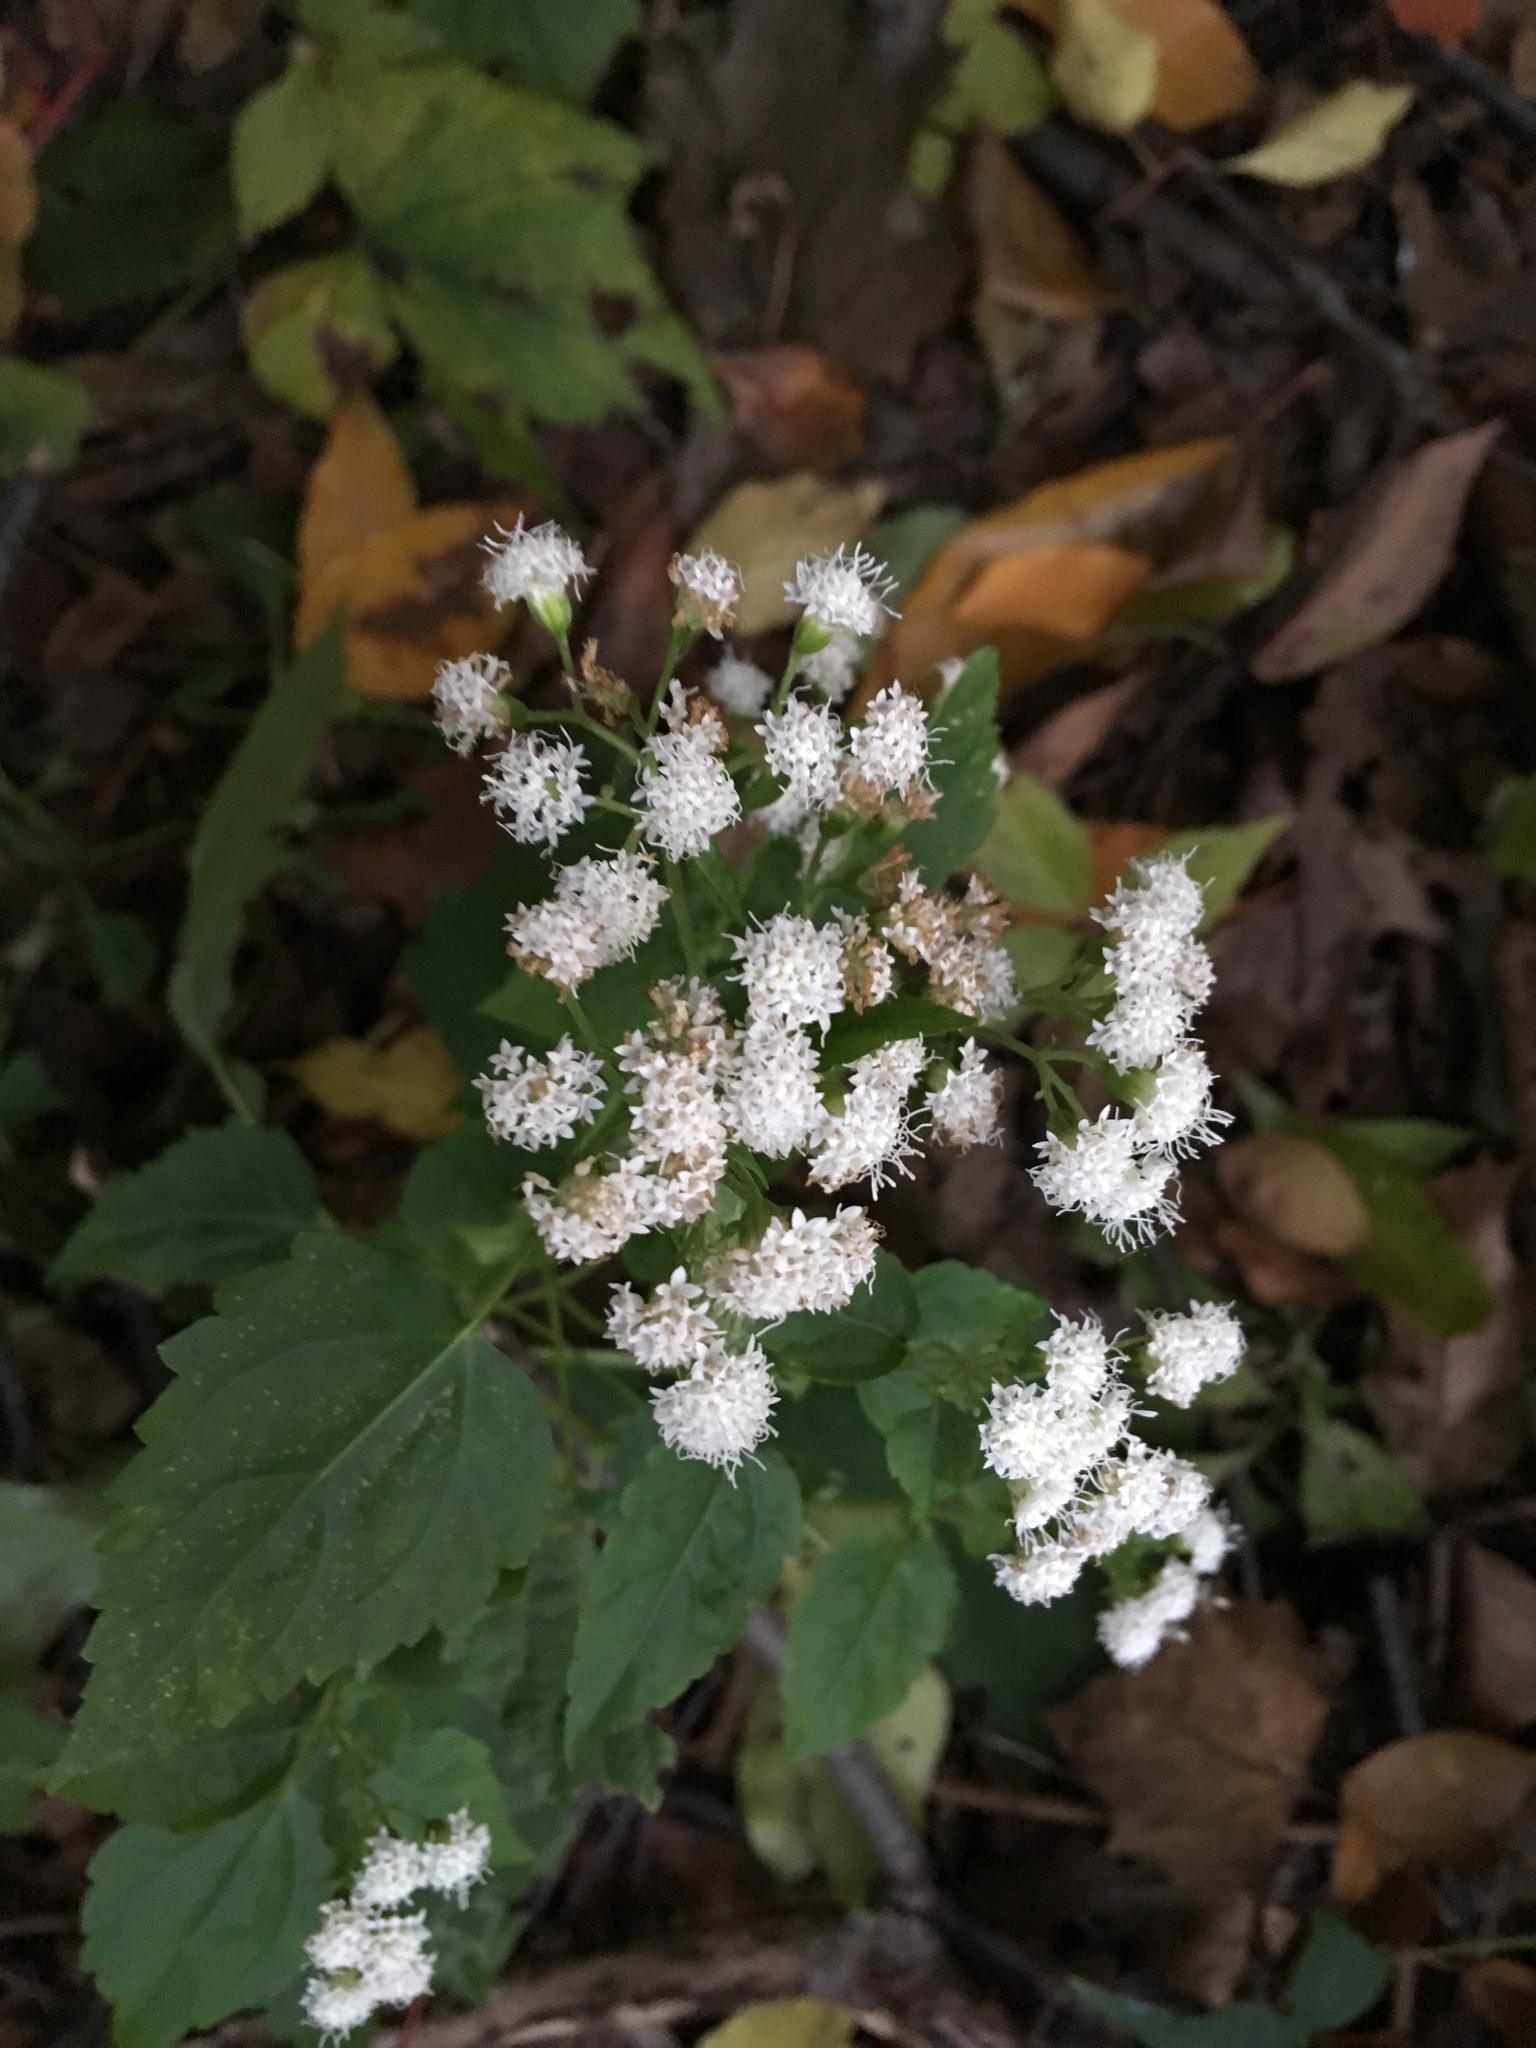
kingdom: Plantae
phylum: Tracheophyta
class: Magnoliopsida
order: Asterales
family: Asteraceae
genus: Ageratina
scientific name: Ageratina altissima
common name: White snakeroot
